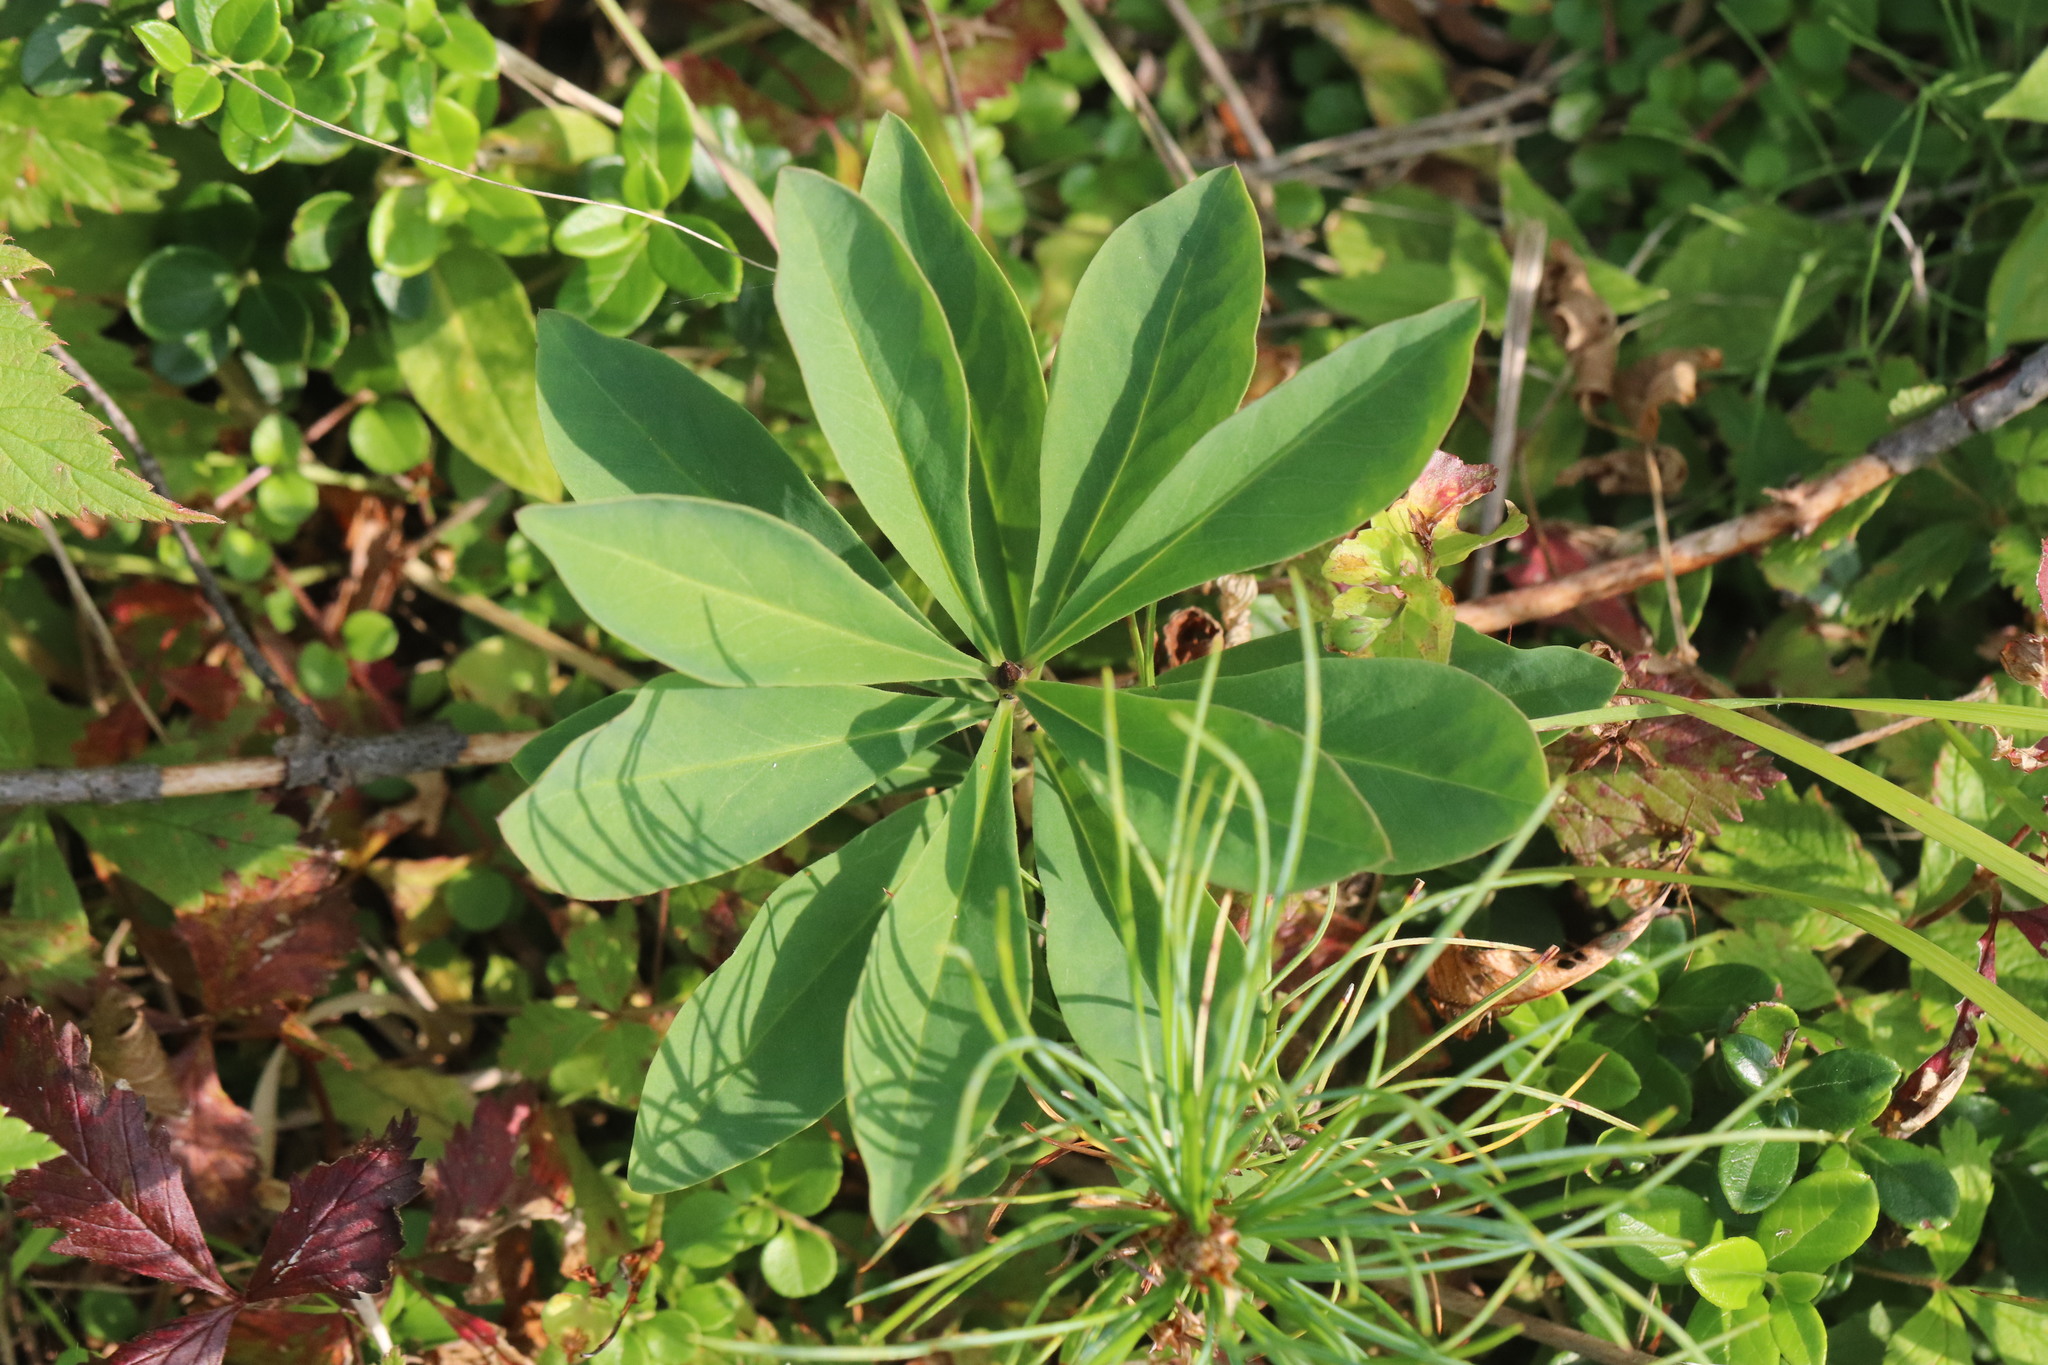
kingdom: Plantae
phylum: Tracheophyta
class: Magnoliopsida
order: Malvales
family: Thymelaeaceae
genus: Daphne
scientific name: Daphne mezereum
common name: Mezereon
